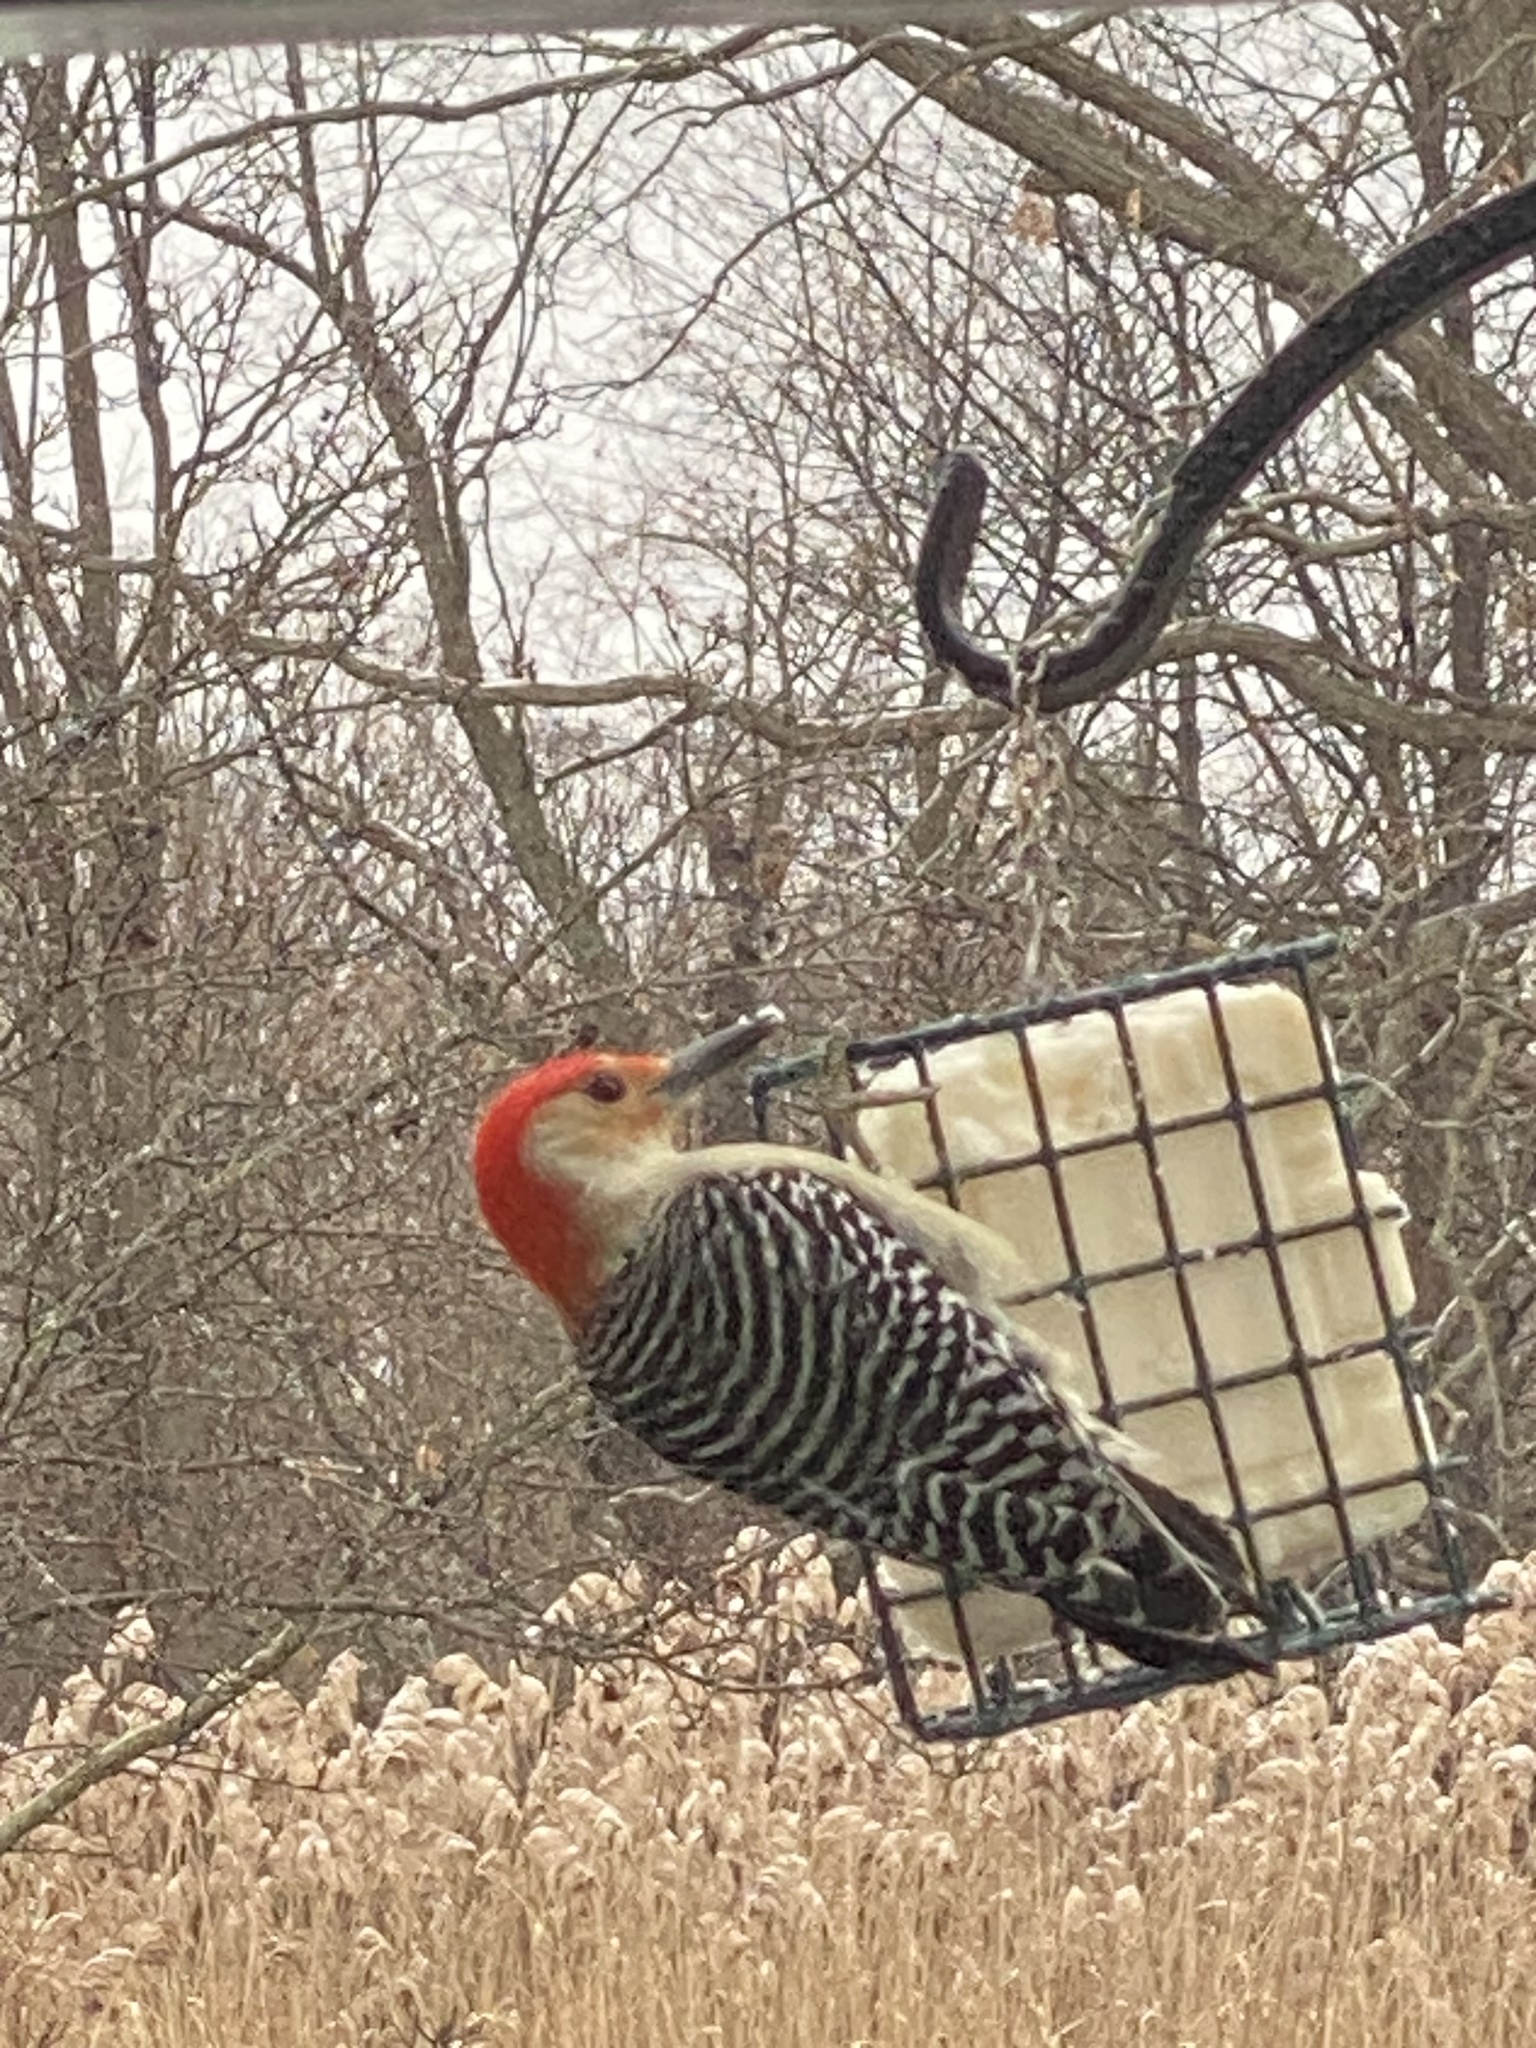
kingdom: Animalia
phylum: Chordata
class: Aves
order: Piciformes
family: Picidae
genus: Melanerpes
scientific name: Melanerpes carolinus
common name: Red-bellied woodpecker
